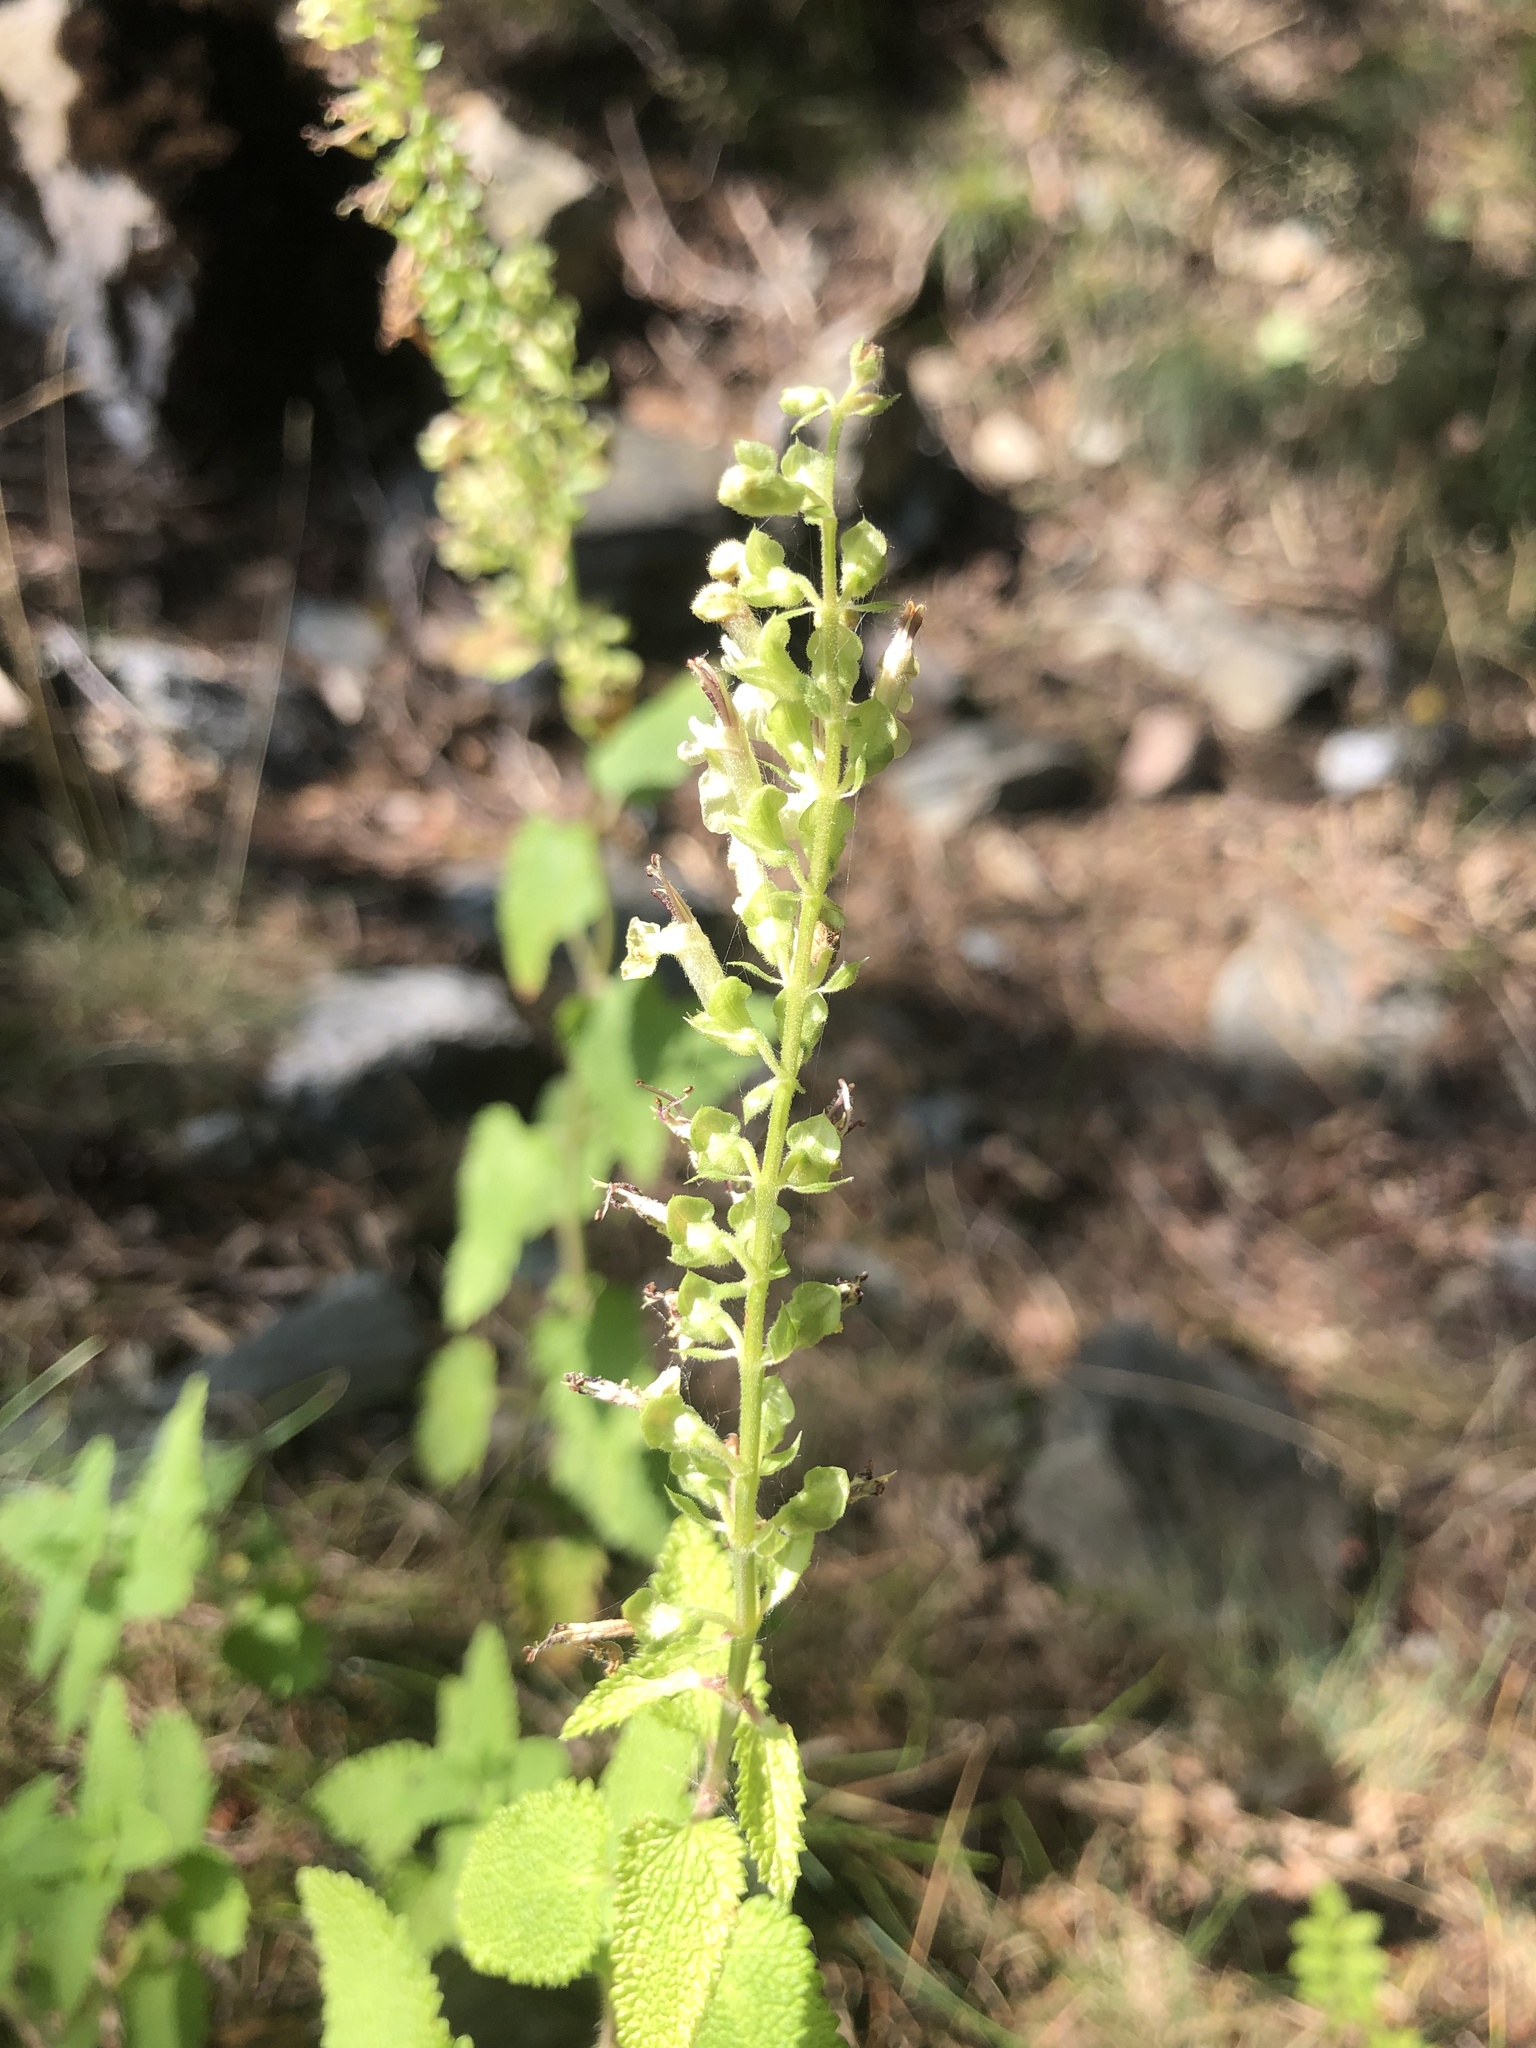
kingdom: Plantae
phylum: Tracheophyta
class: Magnoliopsida
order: Lamiales
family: Lamiaceae
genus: Teucrium
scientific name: Teucrium scorodonia
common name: Woodland germander
